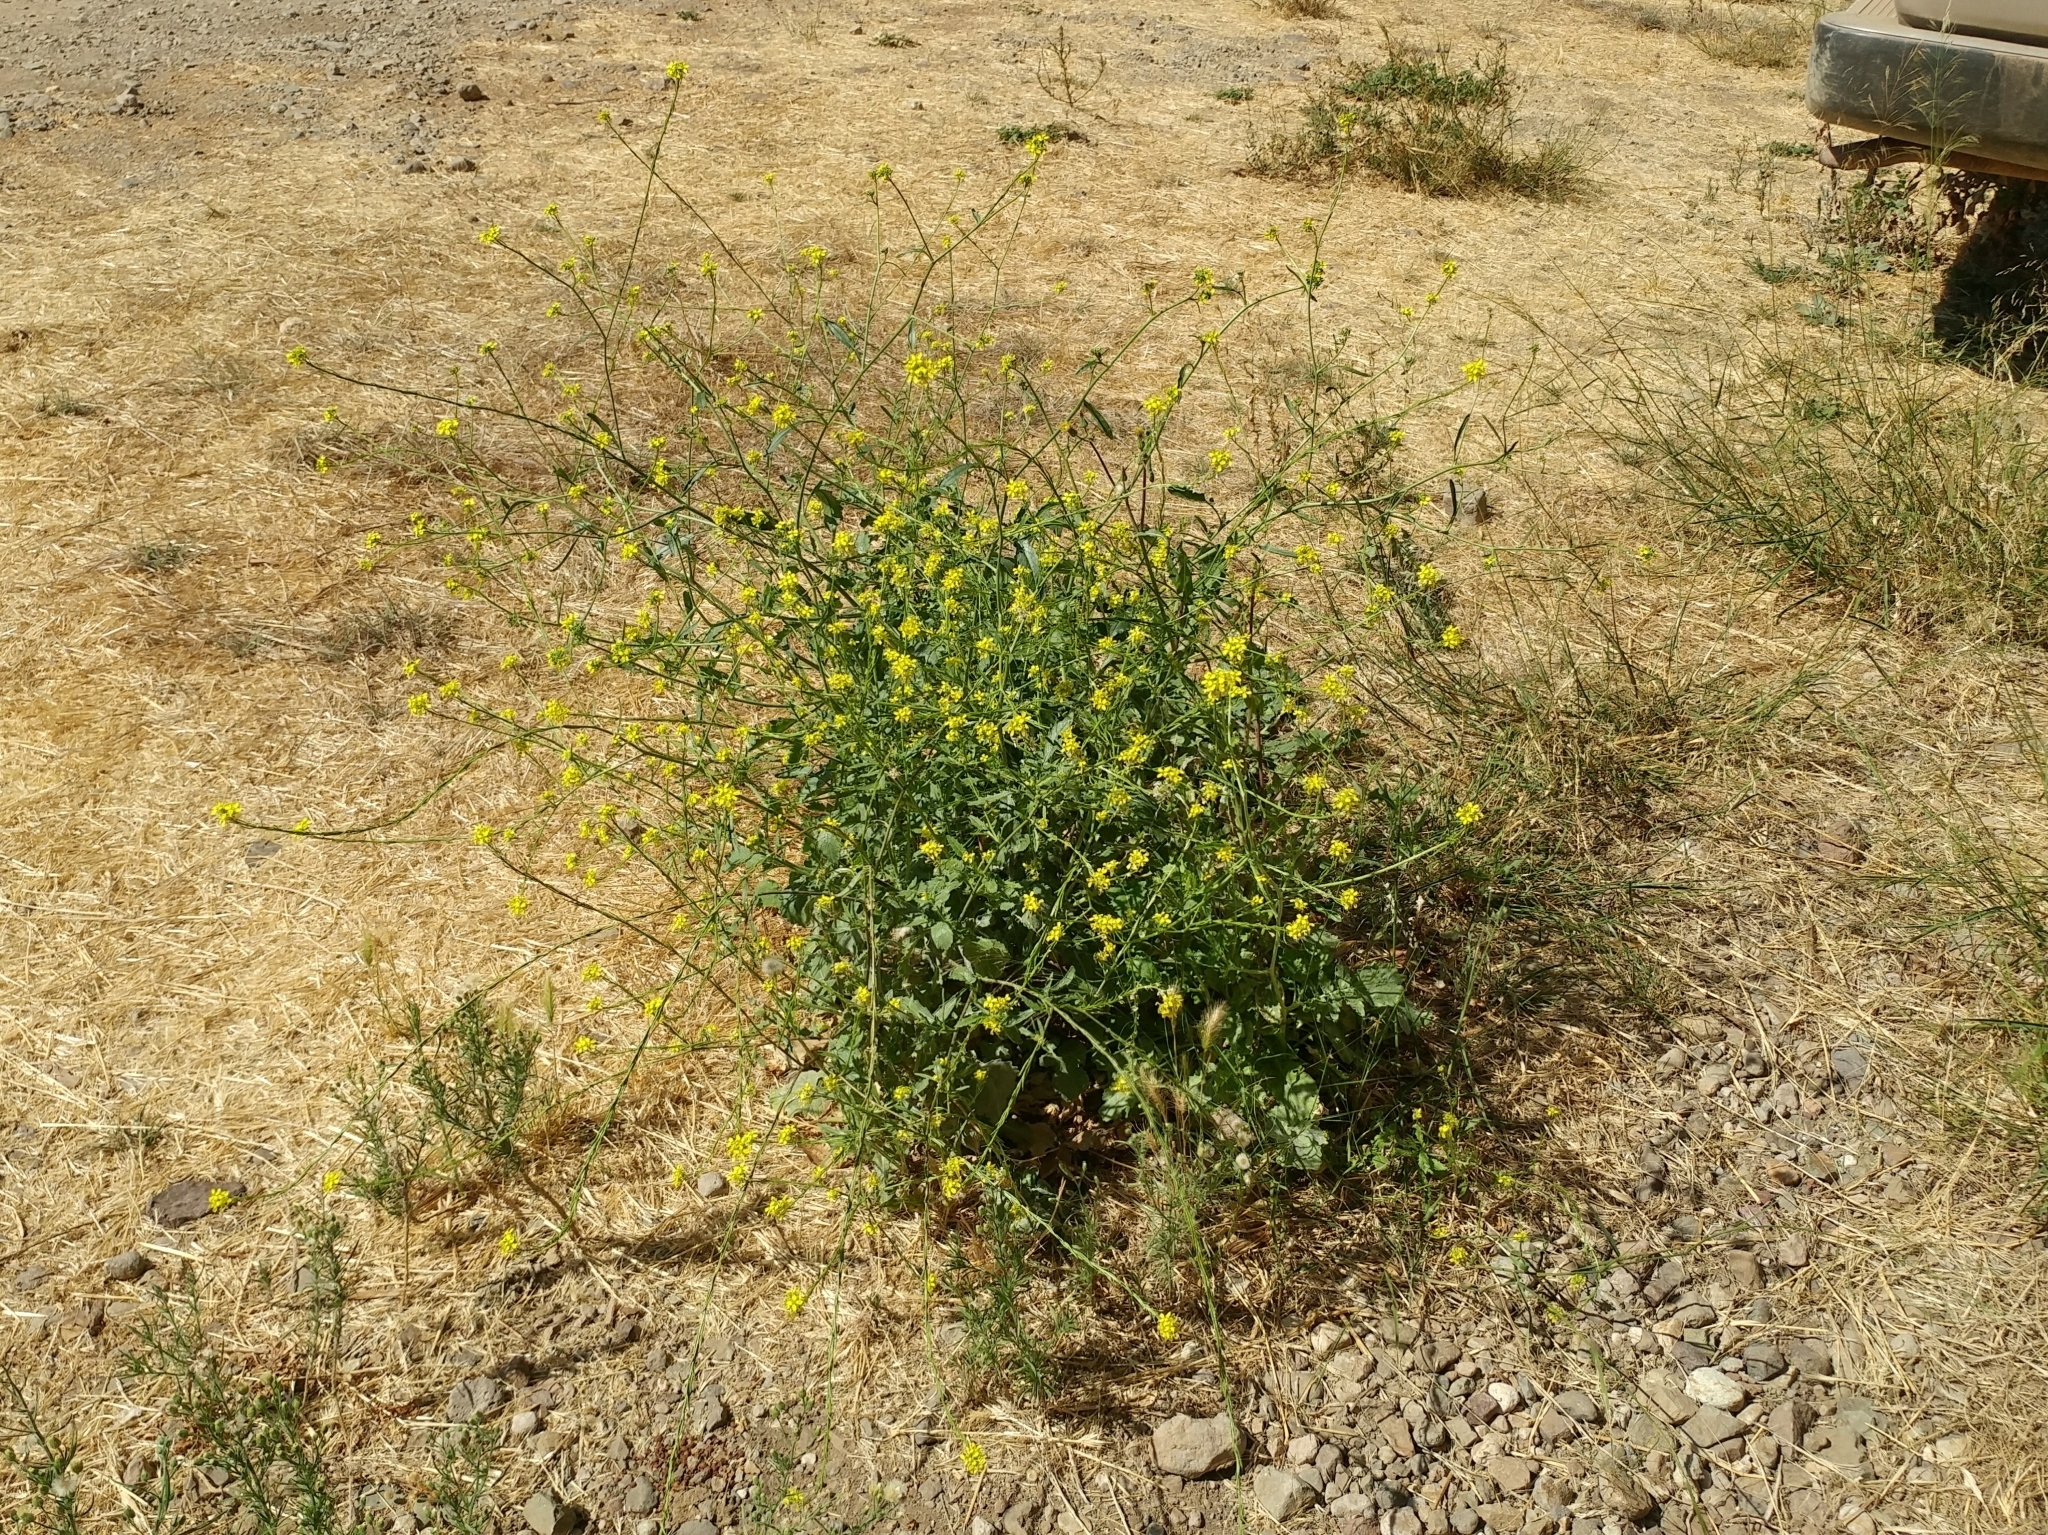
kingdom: Plantae
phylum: Tracheophyta
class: Magnoliopsida
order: Brassicales
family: Brassicaceae
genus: Hirschfeldia
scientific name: Hirschfeldia incana
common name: Hoary mustard
